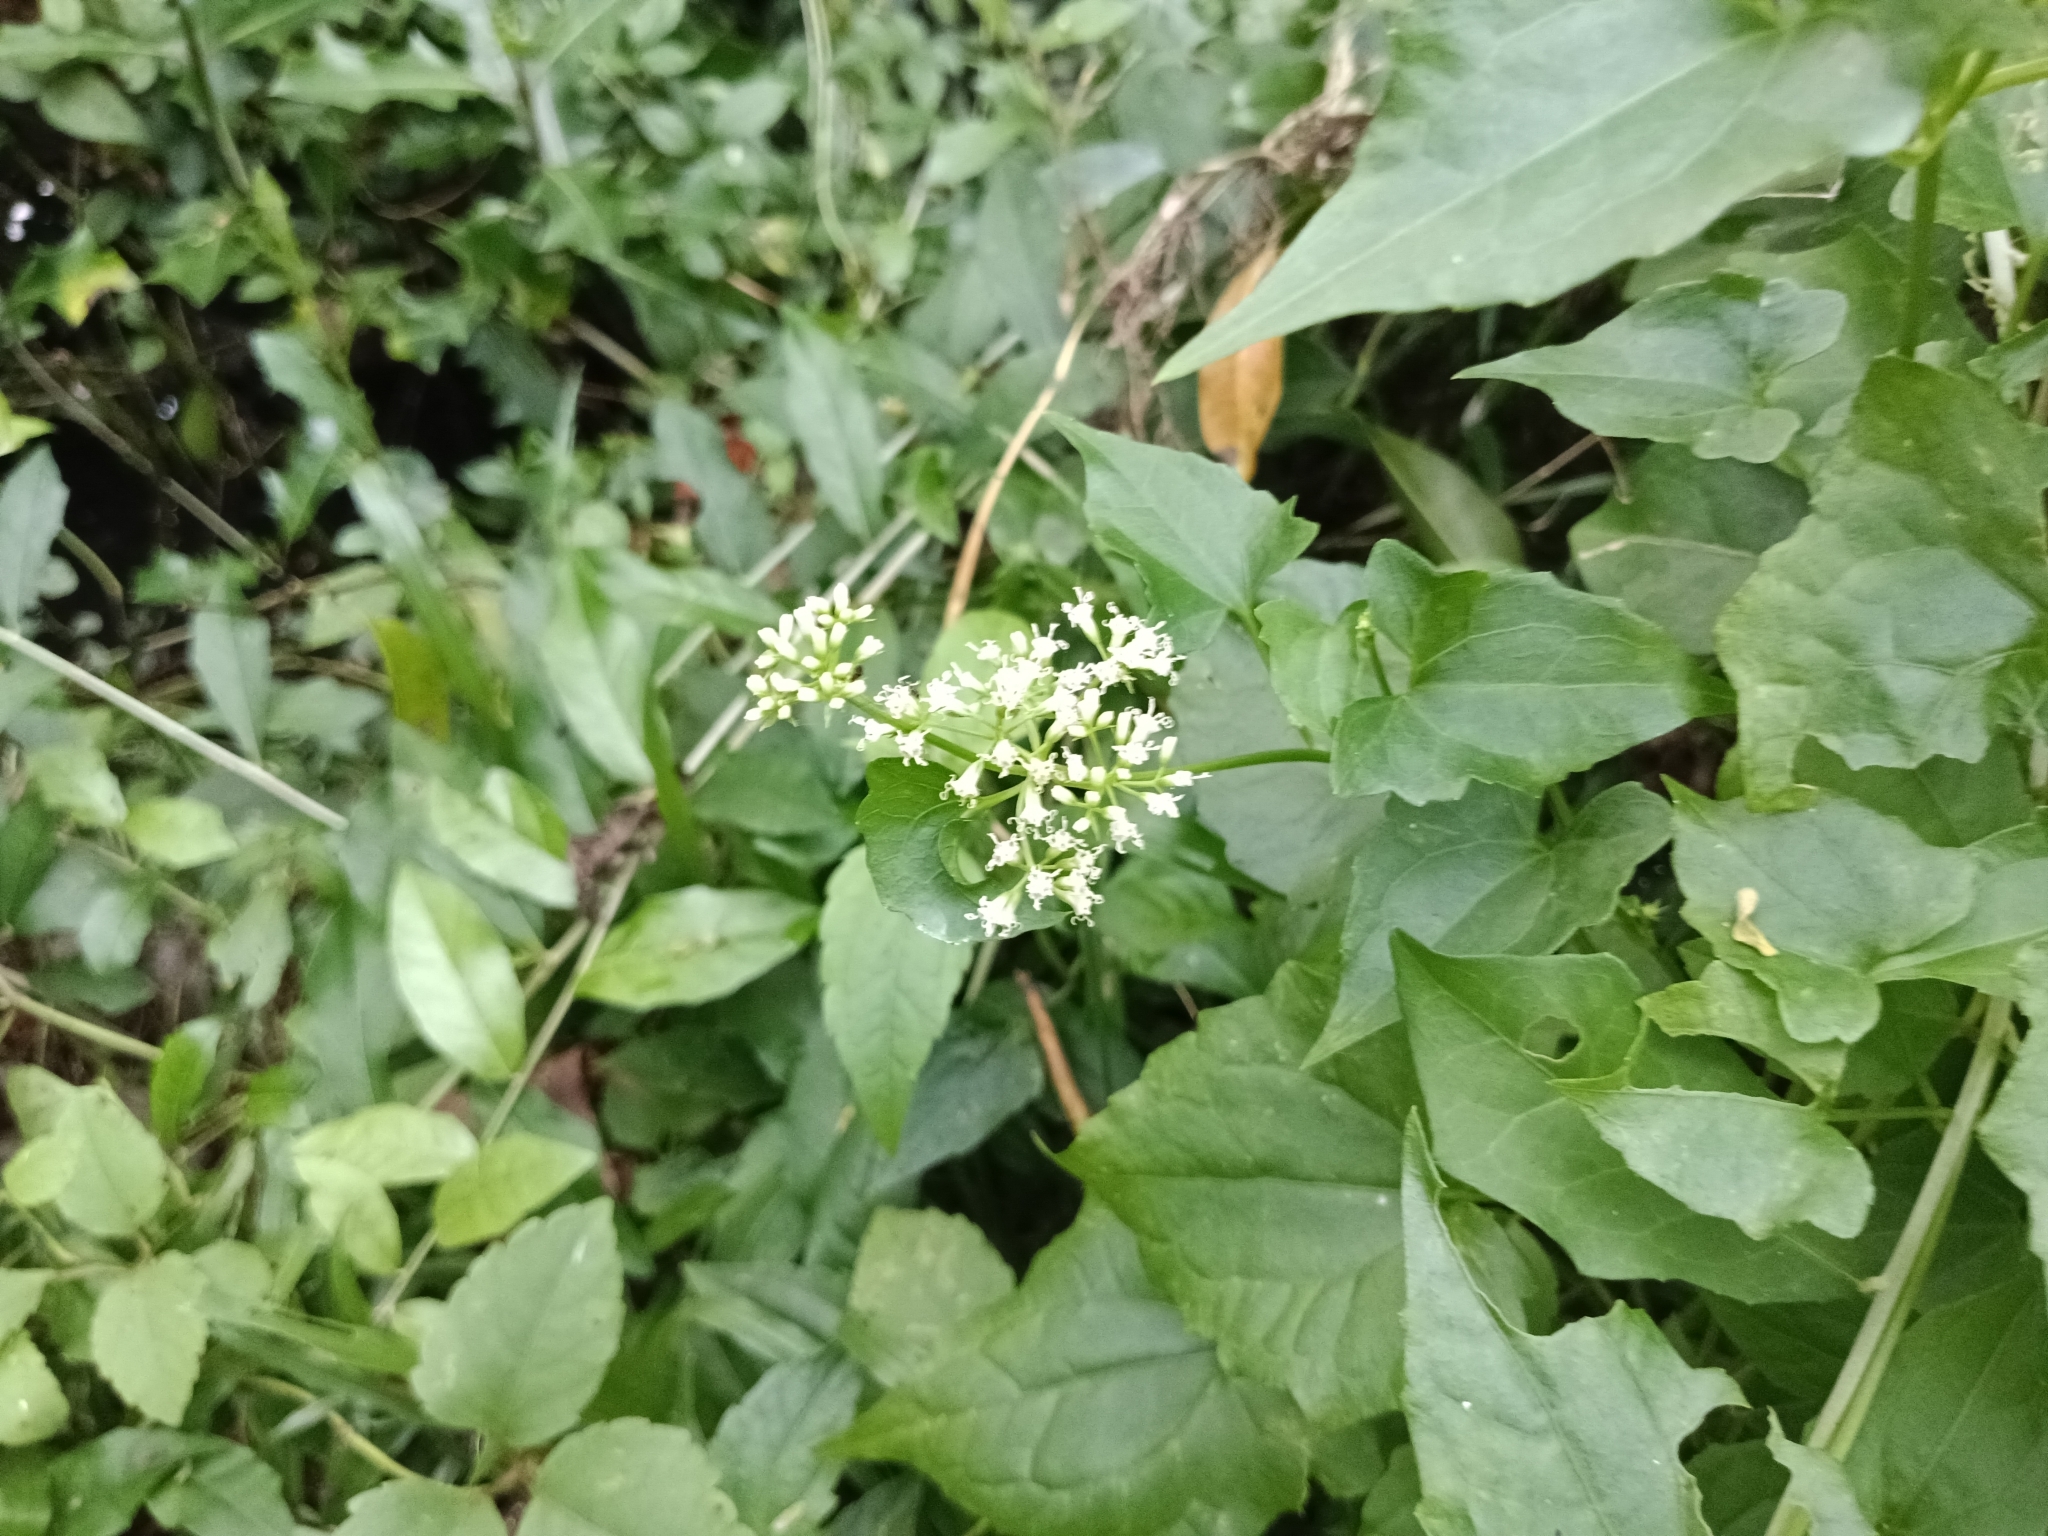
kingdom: Plantae
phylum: Tracheophyta
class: Magnoliopsida
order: Asterales
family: Asteraceae
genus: Mikania
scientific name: Mikania micrantha
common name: Mile-a-minute
